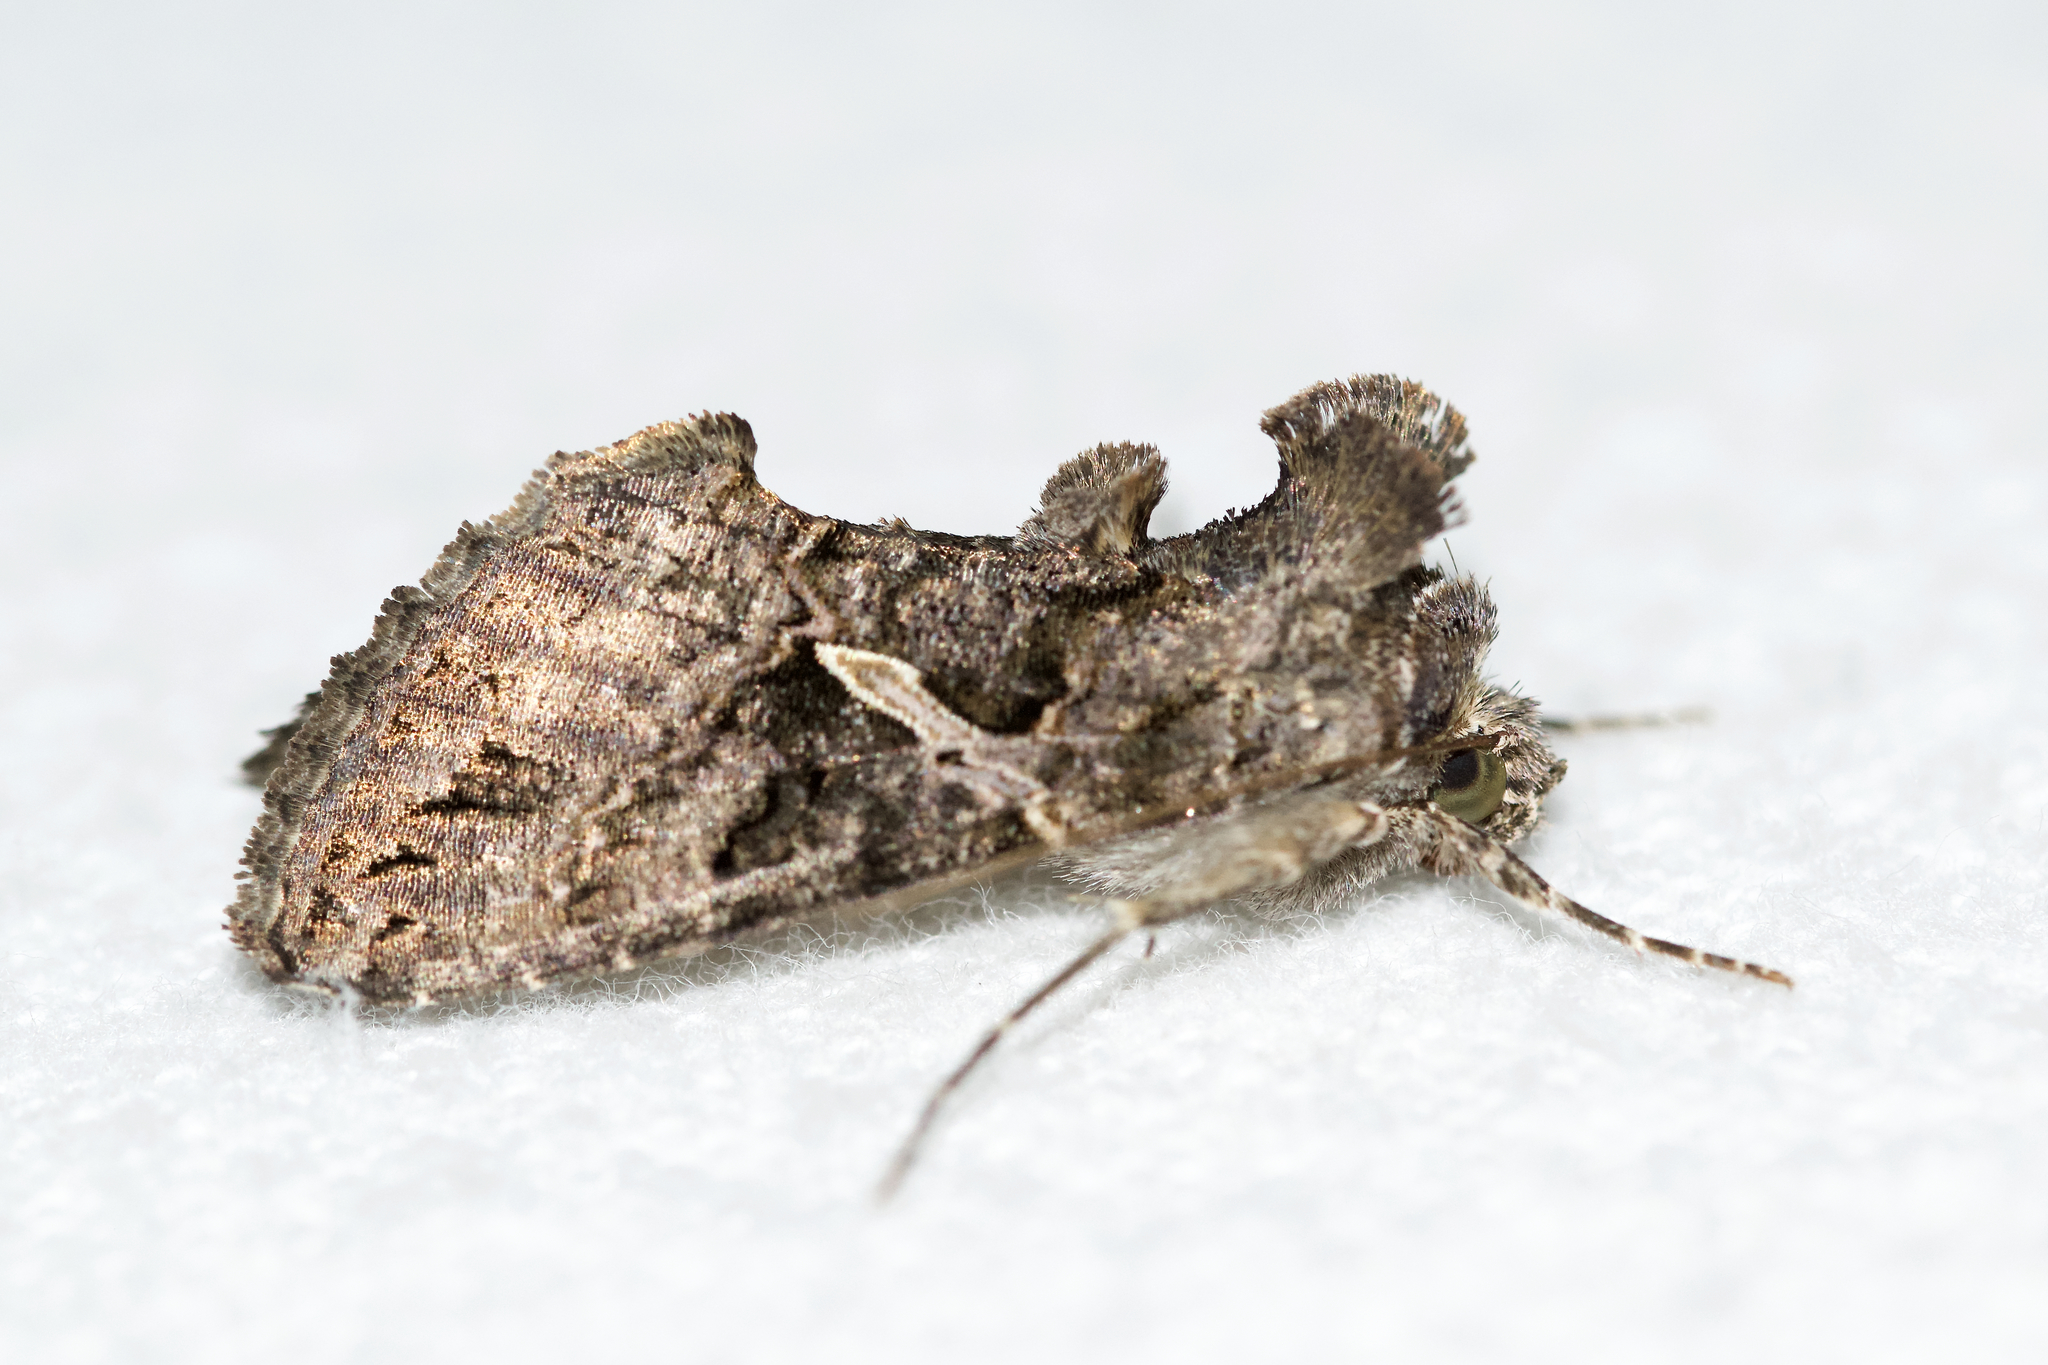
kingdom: Animalia
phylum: Arthropoda
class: Insecta
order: Lepidoptera
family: Noctuidae
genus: Ctenoplusia
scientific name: Ctenoplusia oxygramma
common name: Sharp-stigma looper moth
